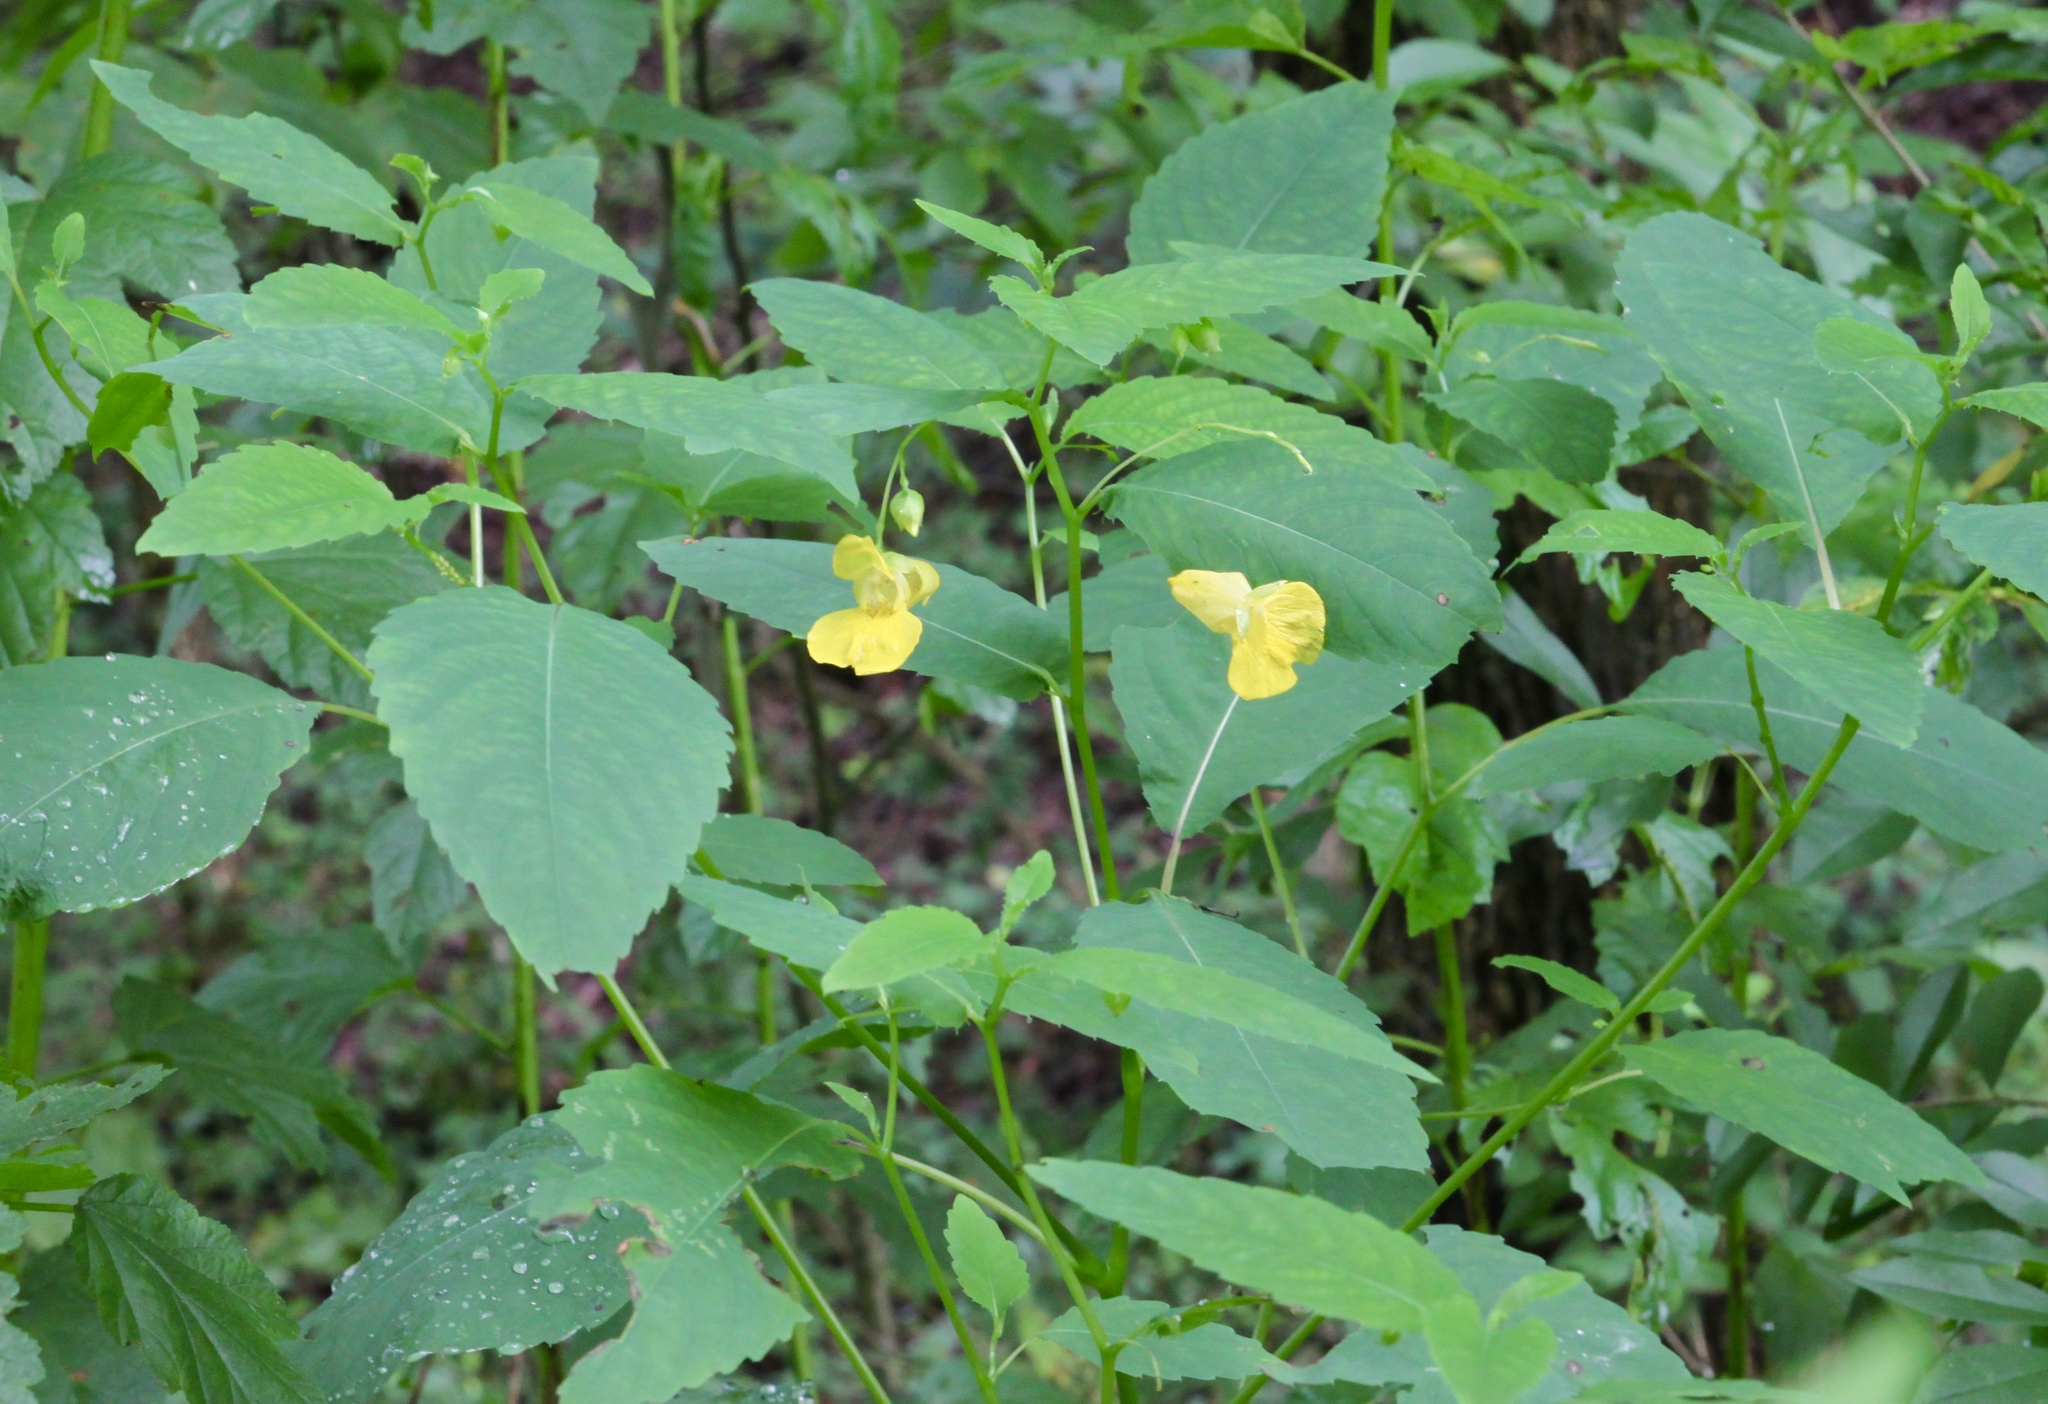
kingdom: Plantae
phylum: Tracheophyta
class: Magnoliopsida
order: Ericales
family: Balsaminaceae
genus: Impatiens
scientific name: Impatiens pallida
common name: Pale snapweed
